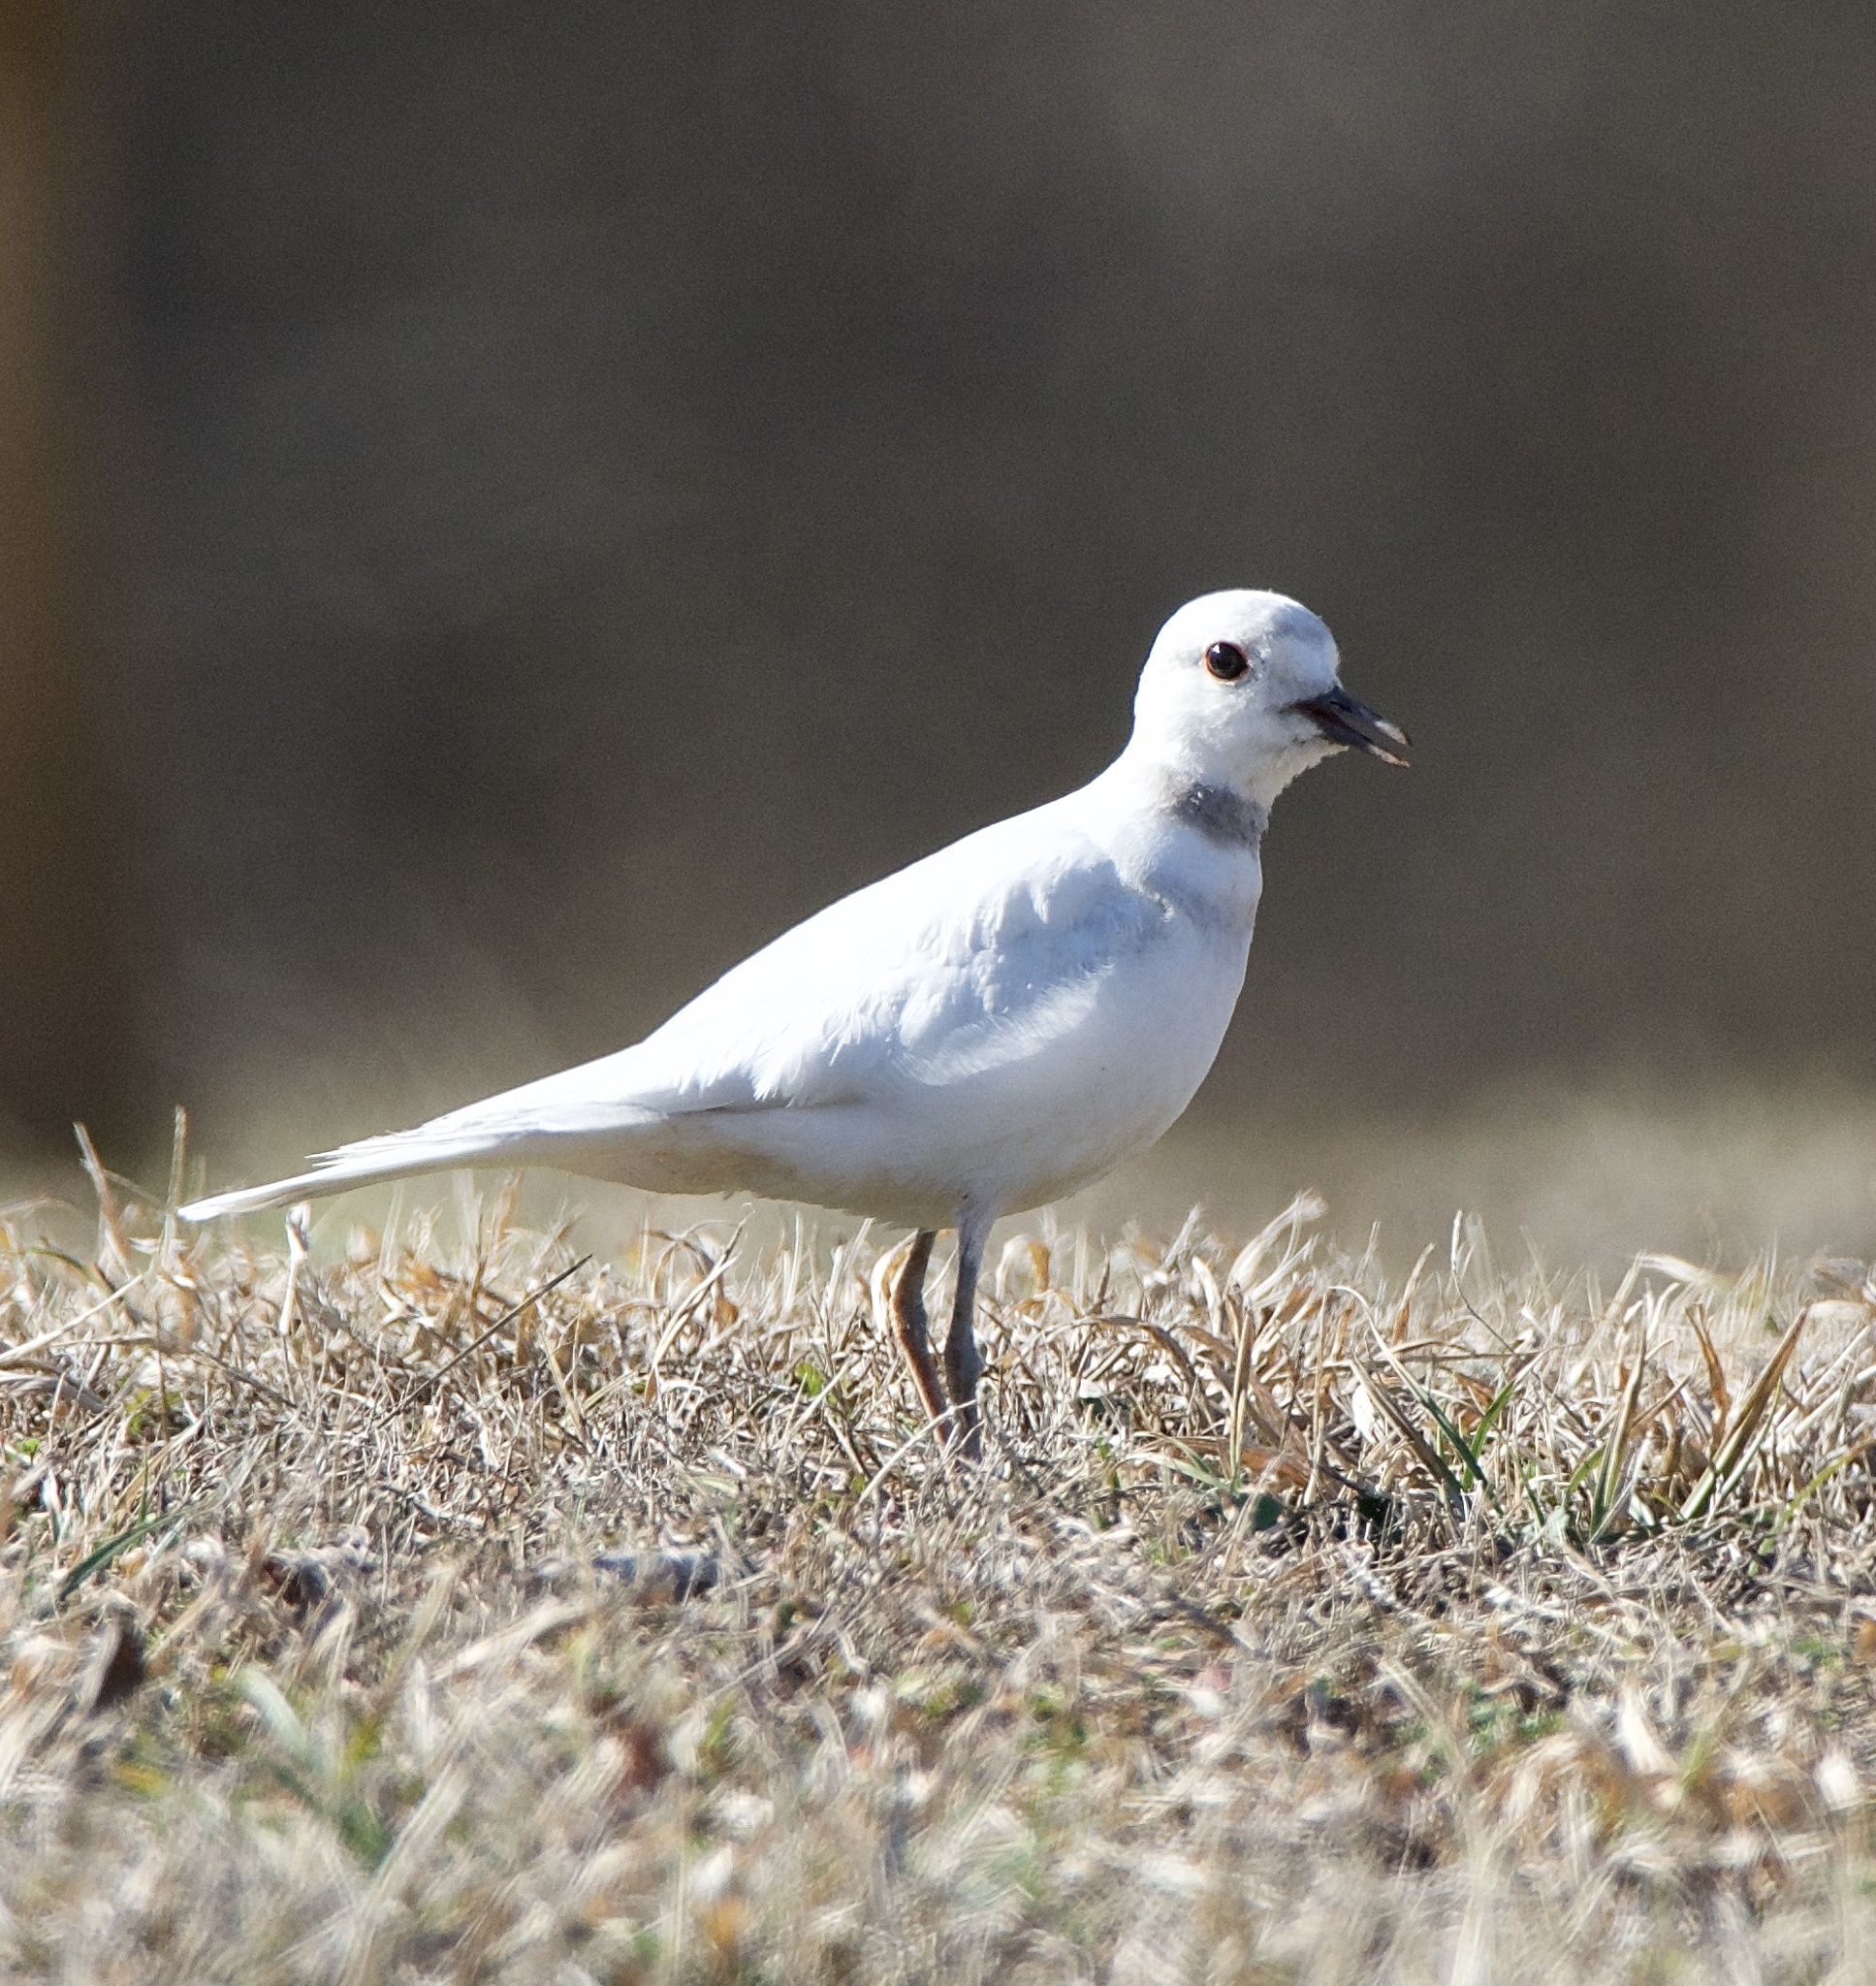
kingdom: Animalia
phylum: Chordata
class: Aves
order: Charadriiformes
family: Charadriidae
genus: Charadrius
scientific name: Charadrius vociferus
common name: Killdeer
